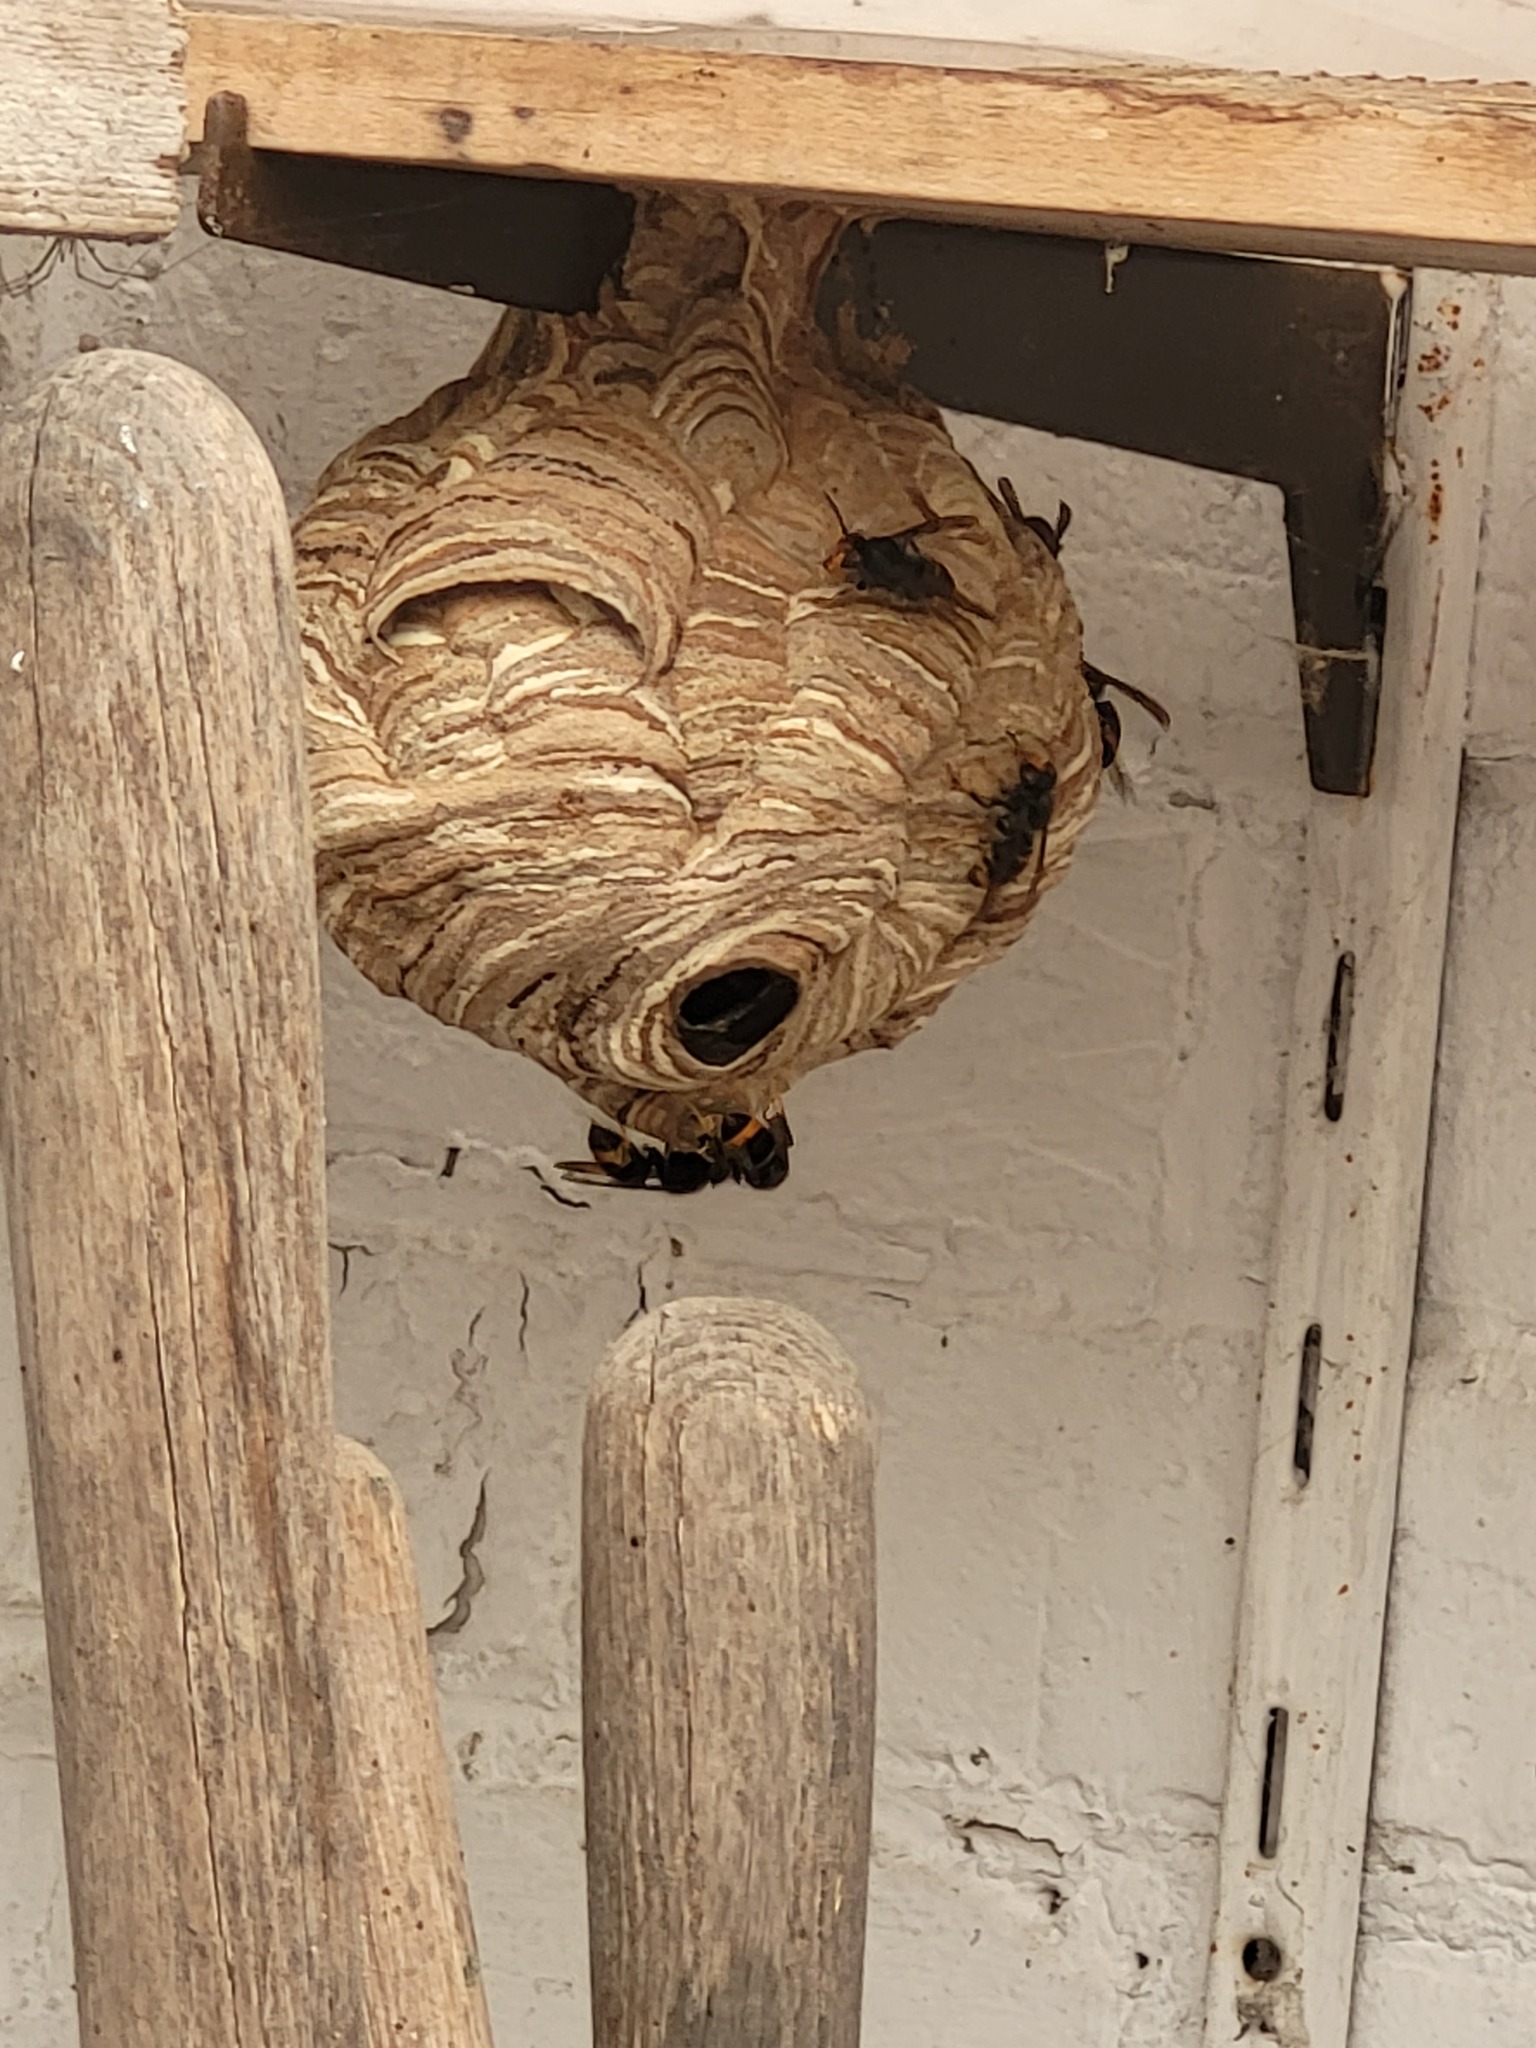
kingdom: Animalia
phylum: Arthropoda
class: Insecta
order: Hymenoptera
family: Vespidae
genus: Vespa
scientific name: Vespa velutina
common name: Asian hornet
